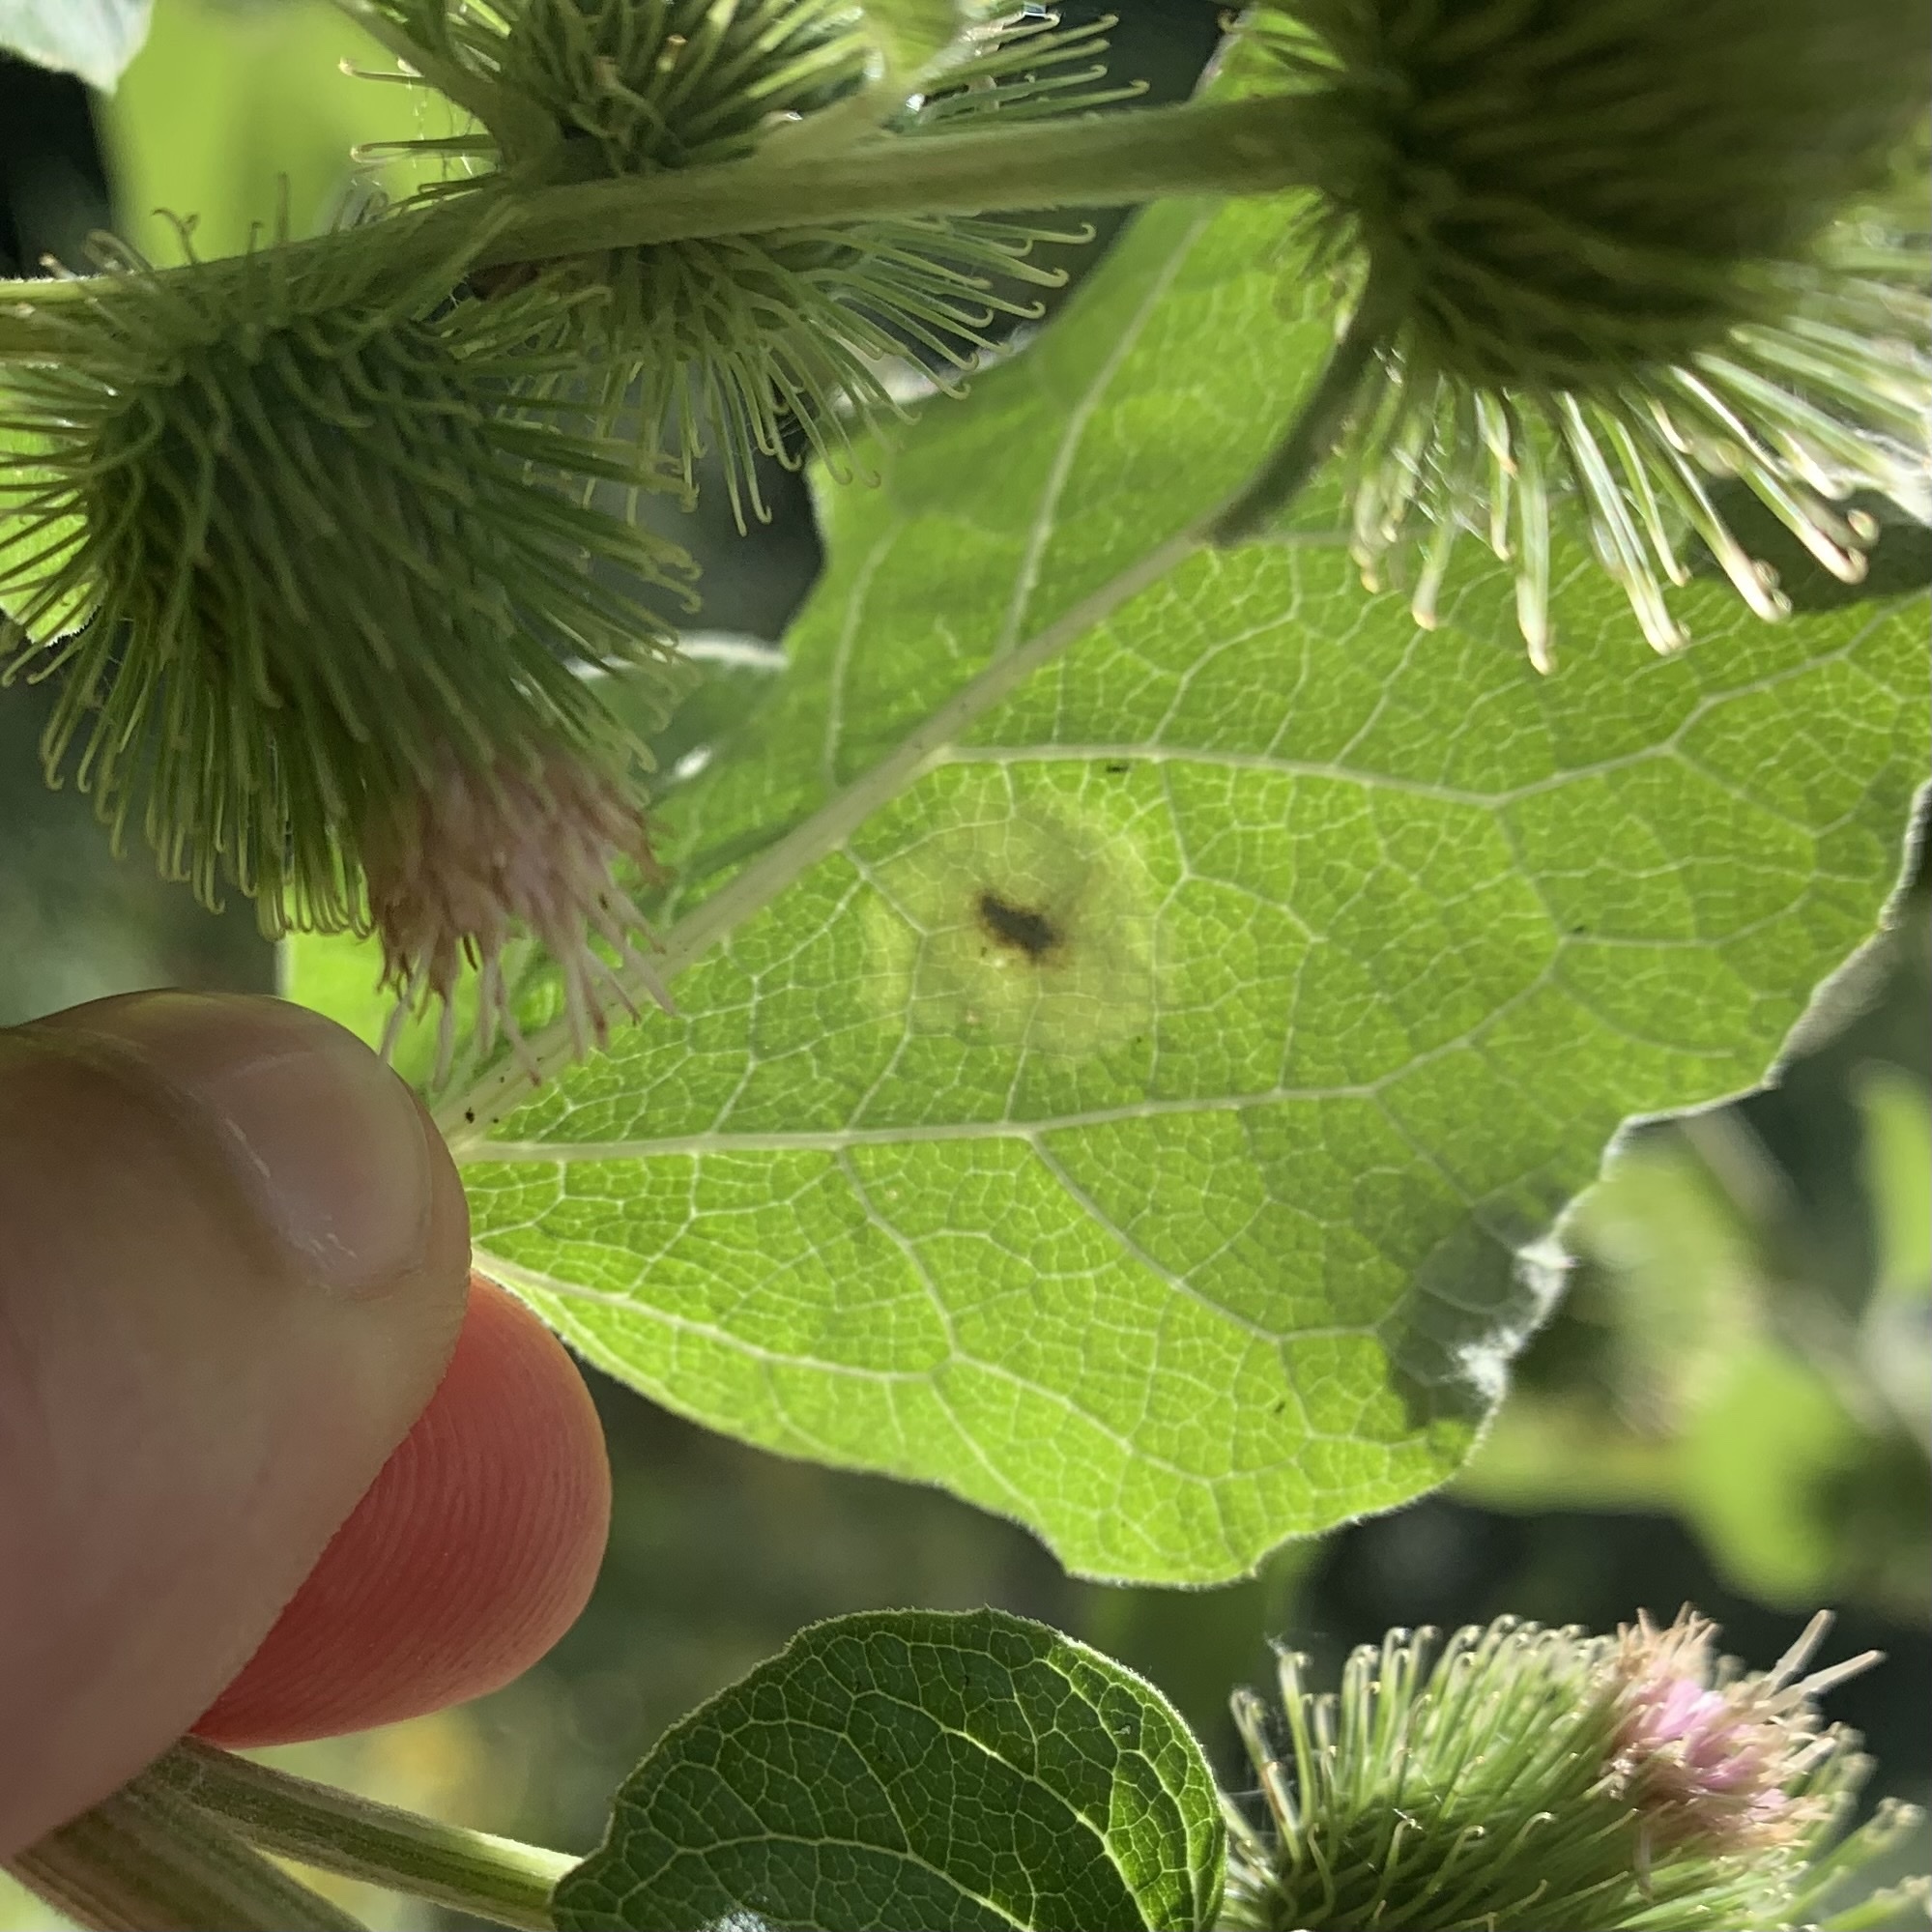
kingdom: Animalia
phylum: Arthropoda
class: Insecta
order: Diptera
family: Agromyzidae
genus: Calycomyza
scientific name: Calycomyza flavinotum
